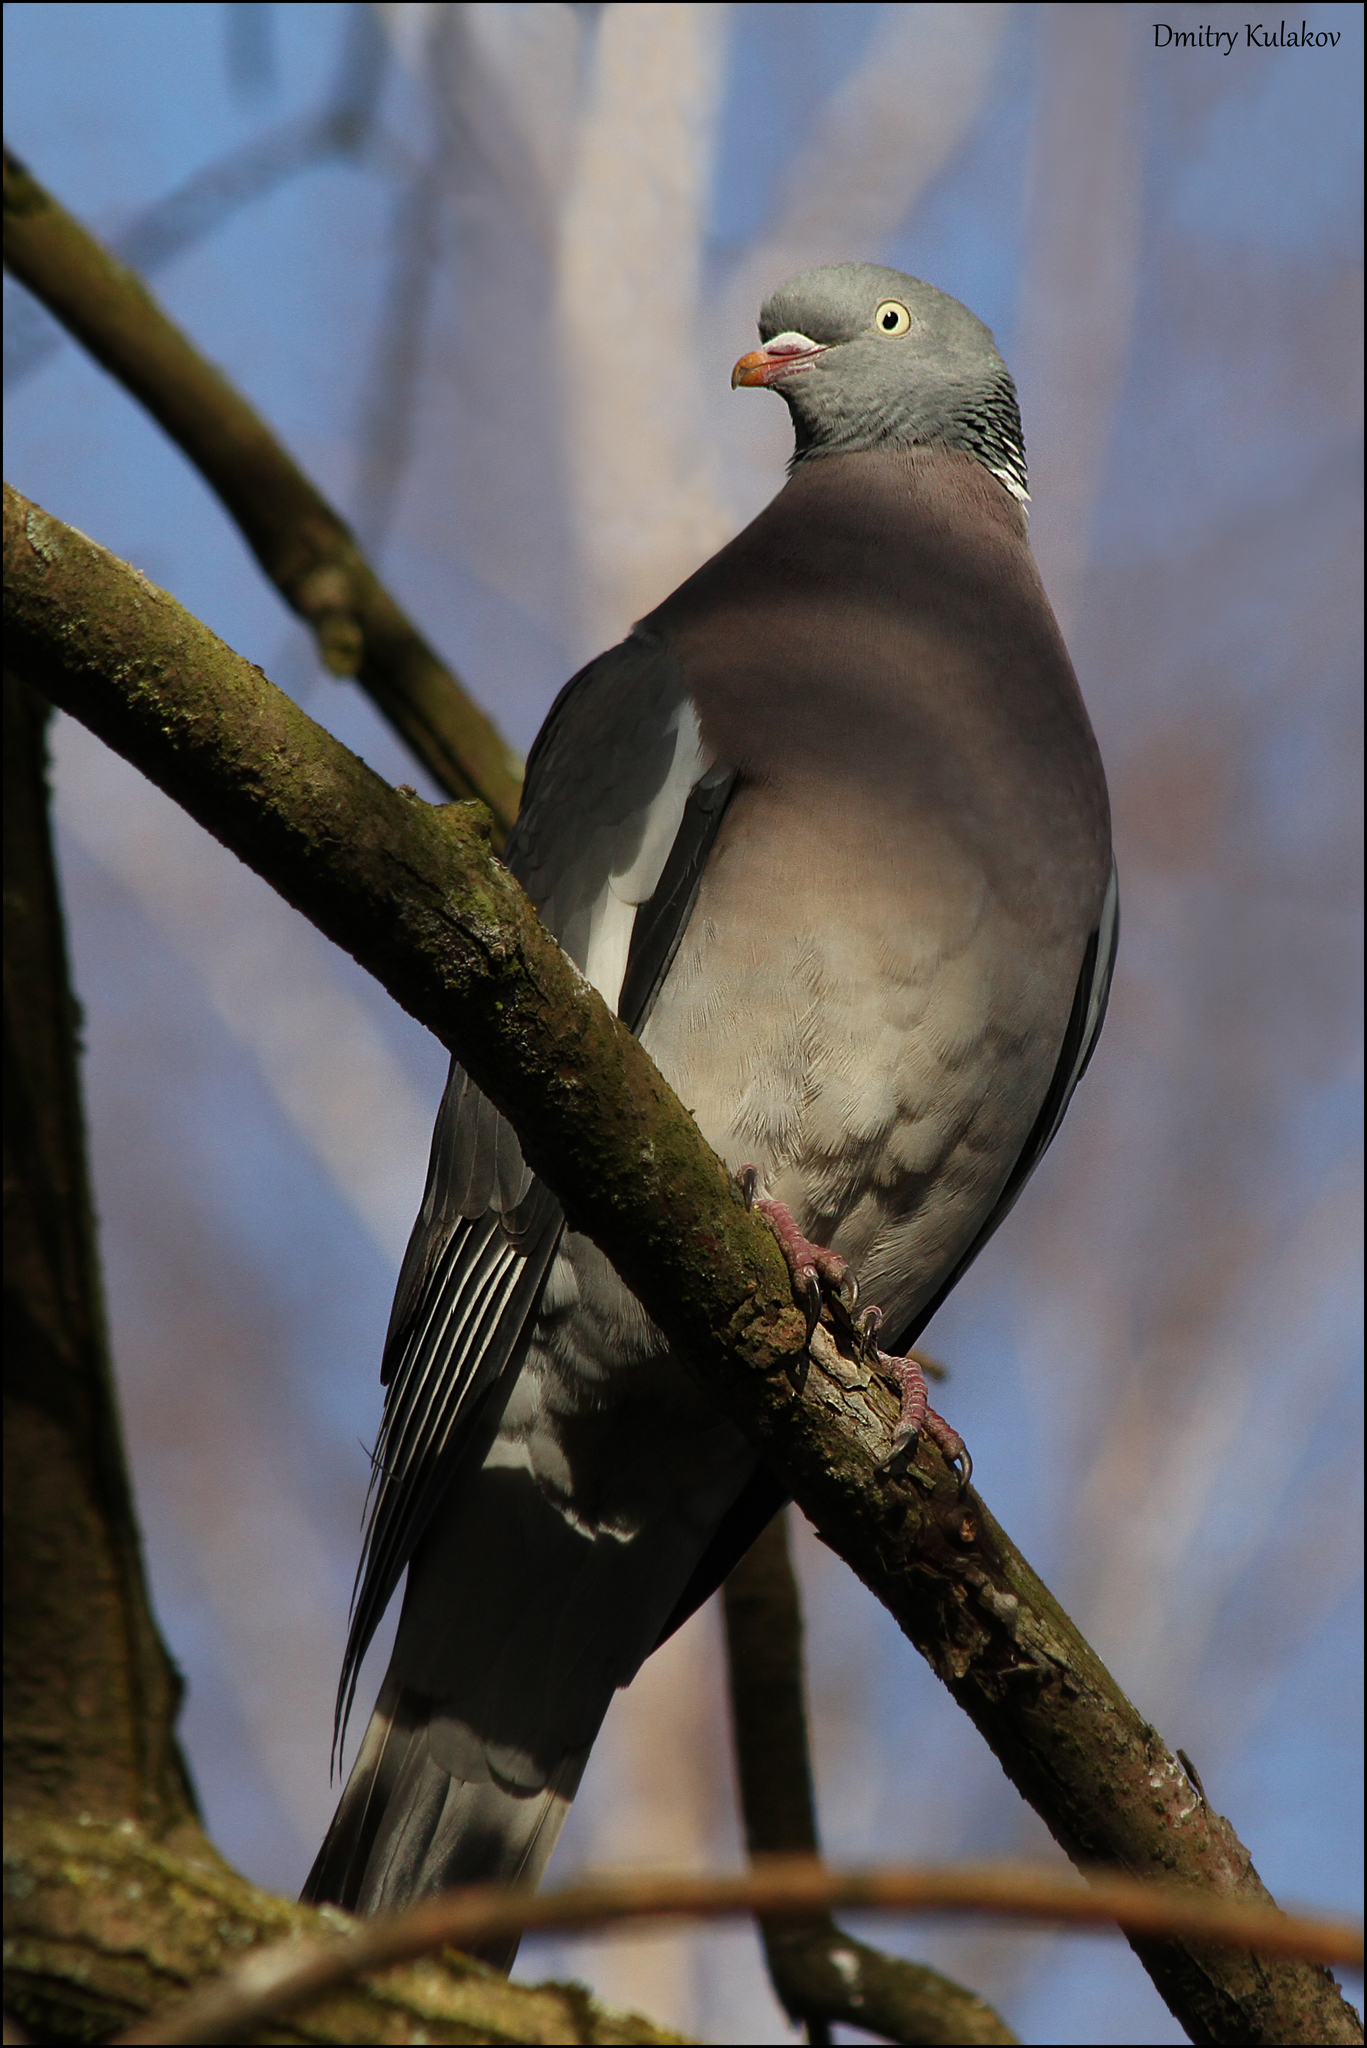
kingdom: Animalia
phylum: Chordata
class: Aves
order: Columbiformes
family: Columbidae
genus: Columba
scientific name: Columba palumbus
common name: Common wood pigeon
